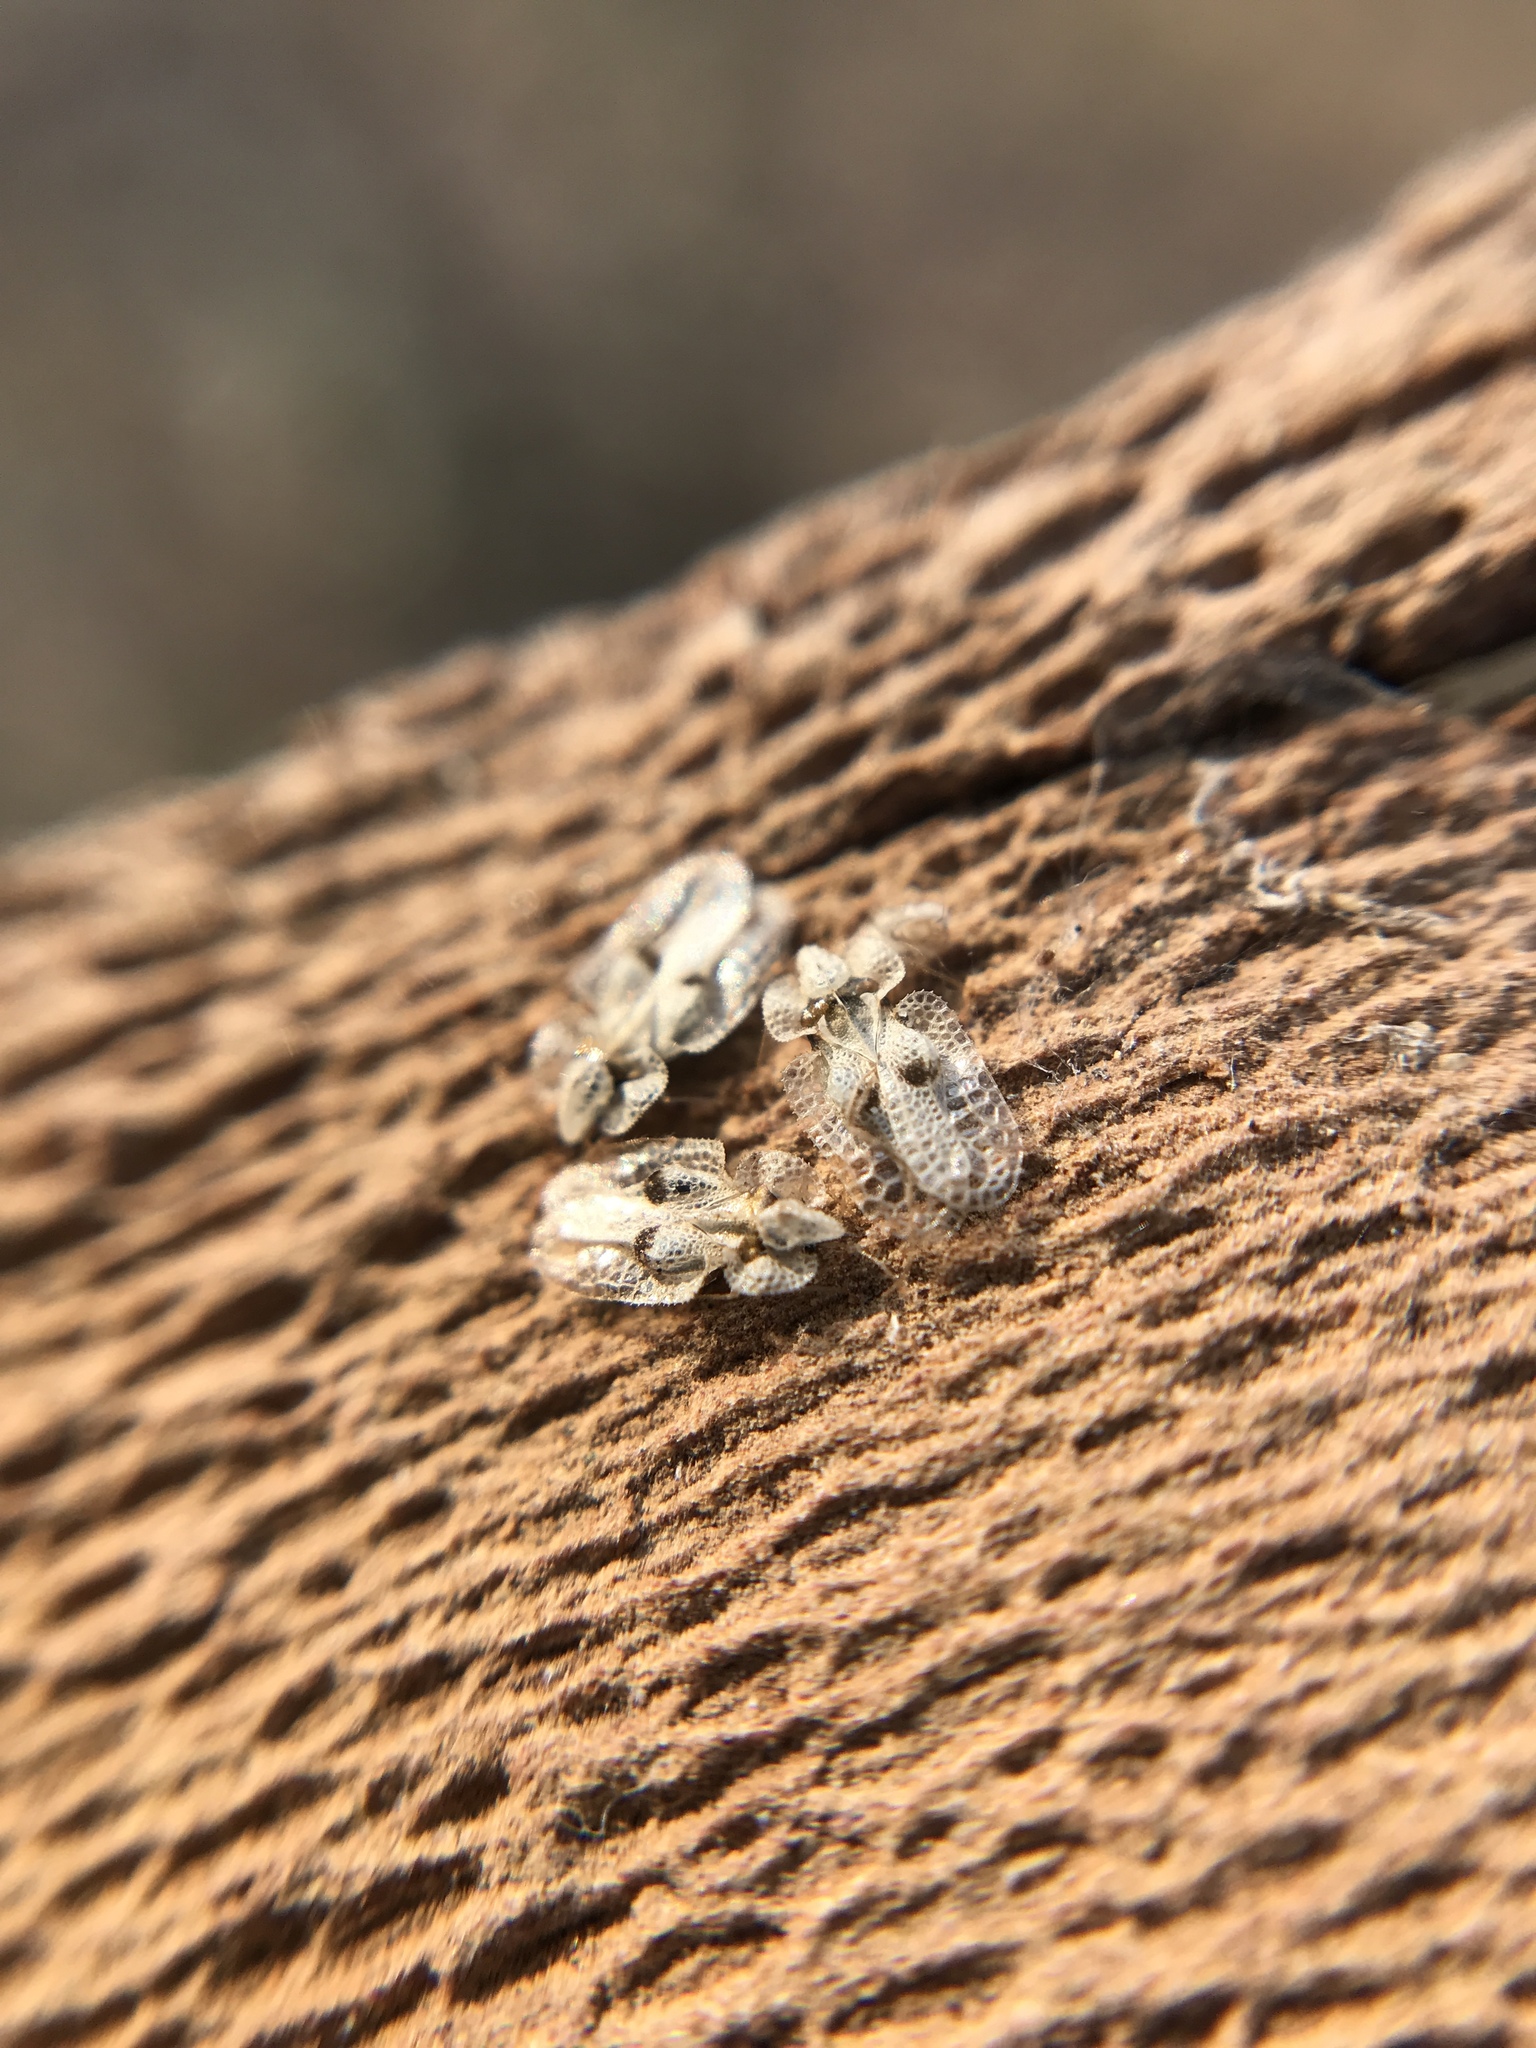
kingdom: Animalia
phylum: Arthropoda
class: Insecta
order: Hemiptera
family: Tingidae
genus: Corythucha
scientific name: Corythucha ciliata
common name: Sycamore lace bug
